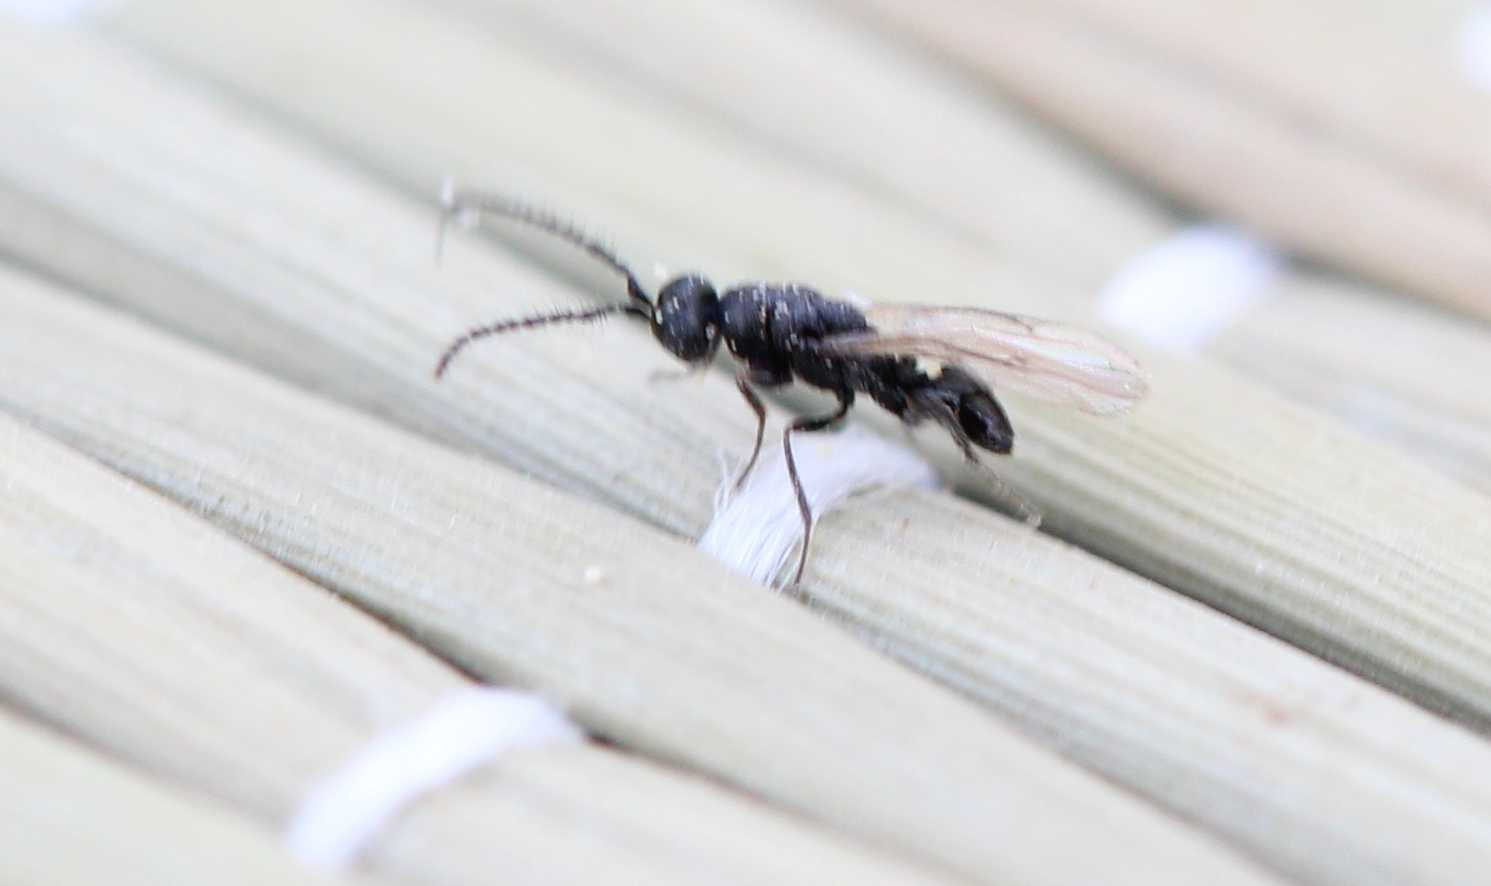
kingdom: Animalia
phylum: Arthropoda
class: Insecta
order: Hymenoptera
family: Eurytomidae
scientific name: Eurytomidae
